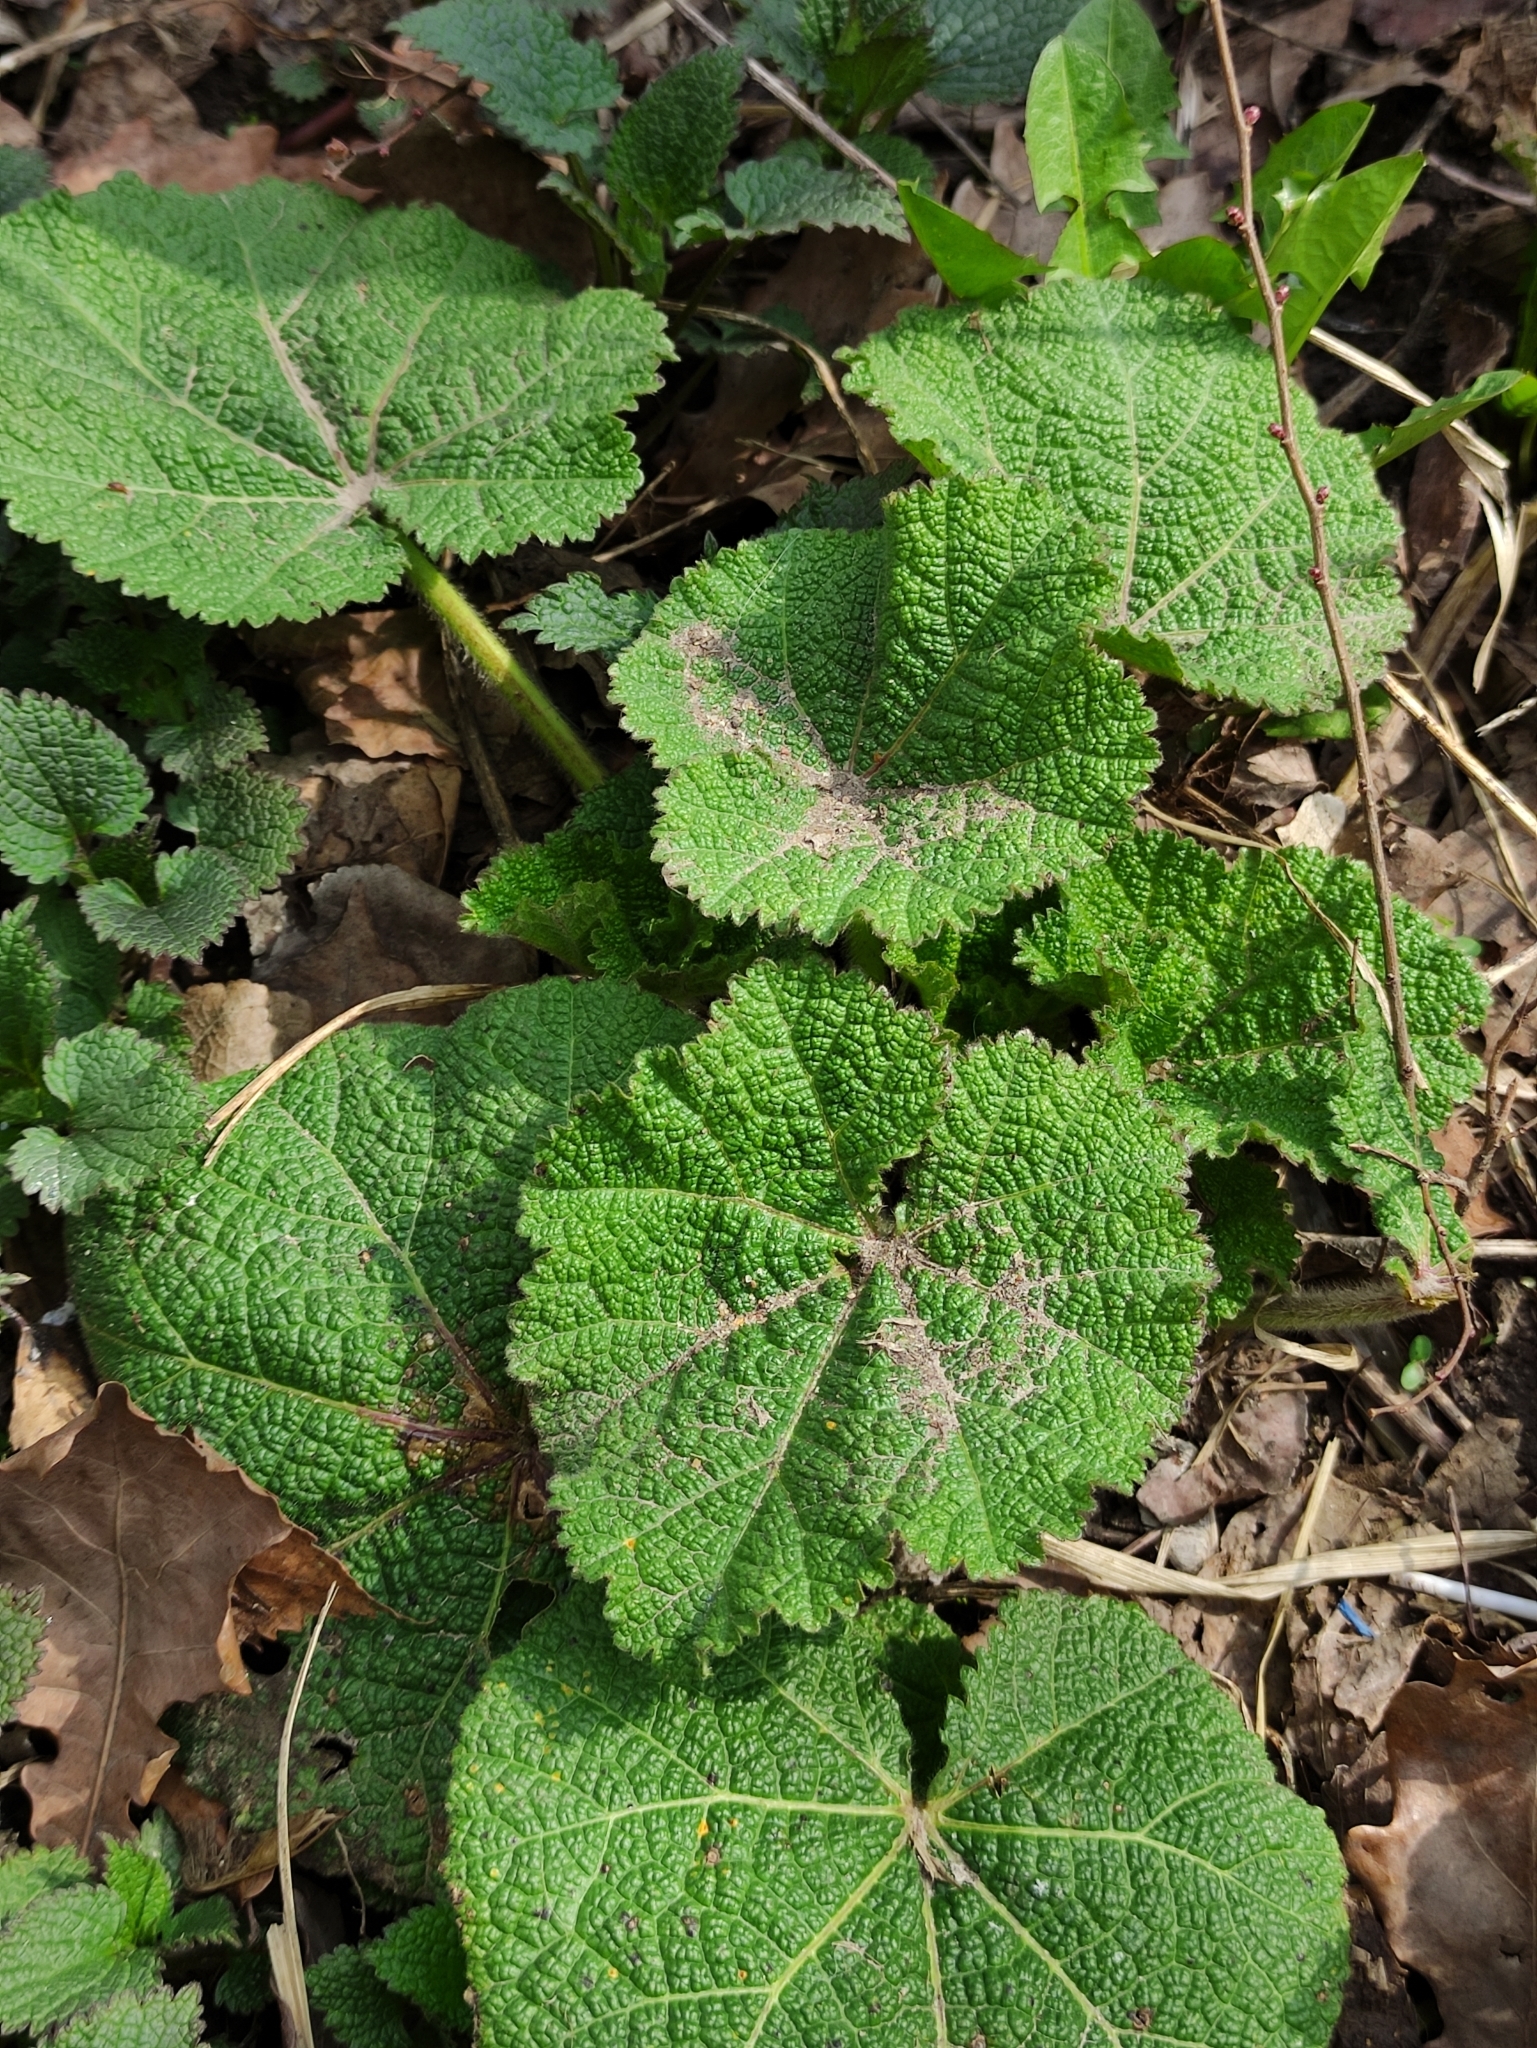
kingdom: Plantae
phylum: Tracheophyta
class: Magnoliopsida
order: Malvales
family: Malvaceae
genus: Alcea
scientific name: Alcea rosea
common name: Hollyhock
